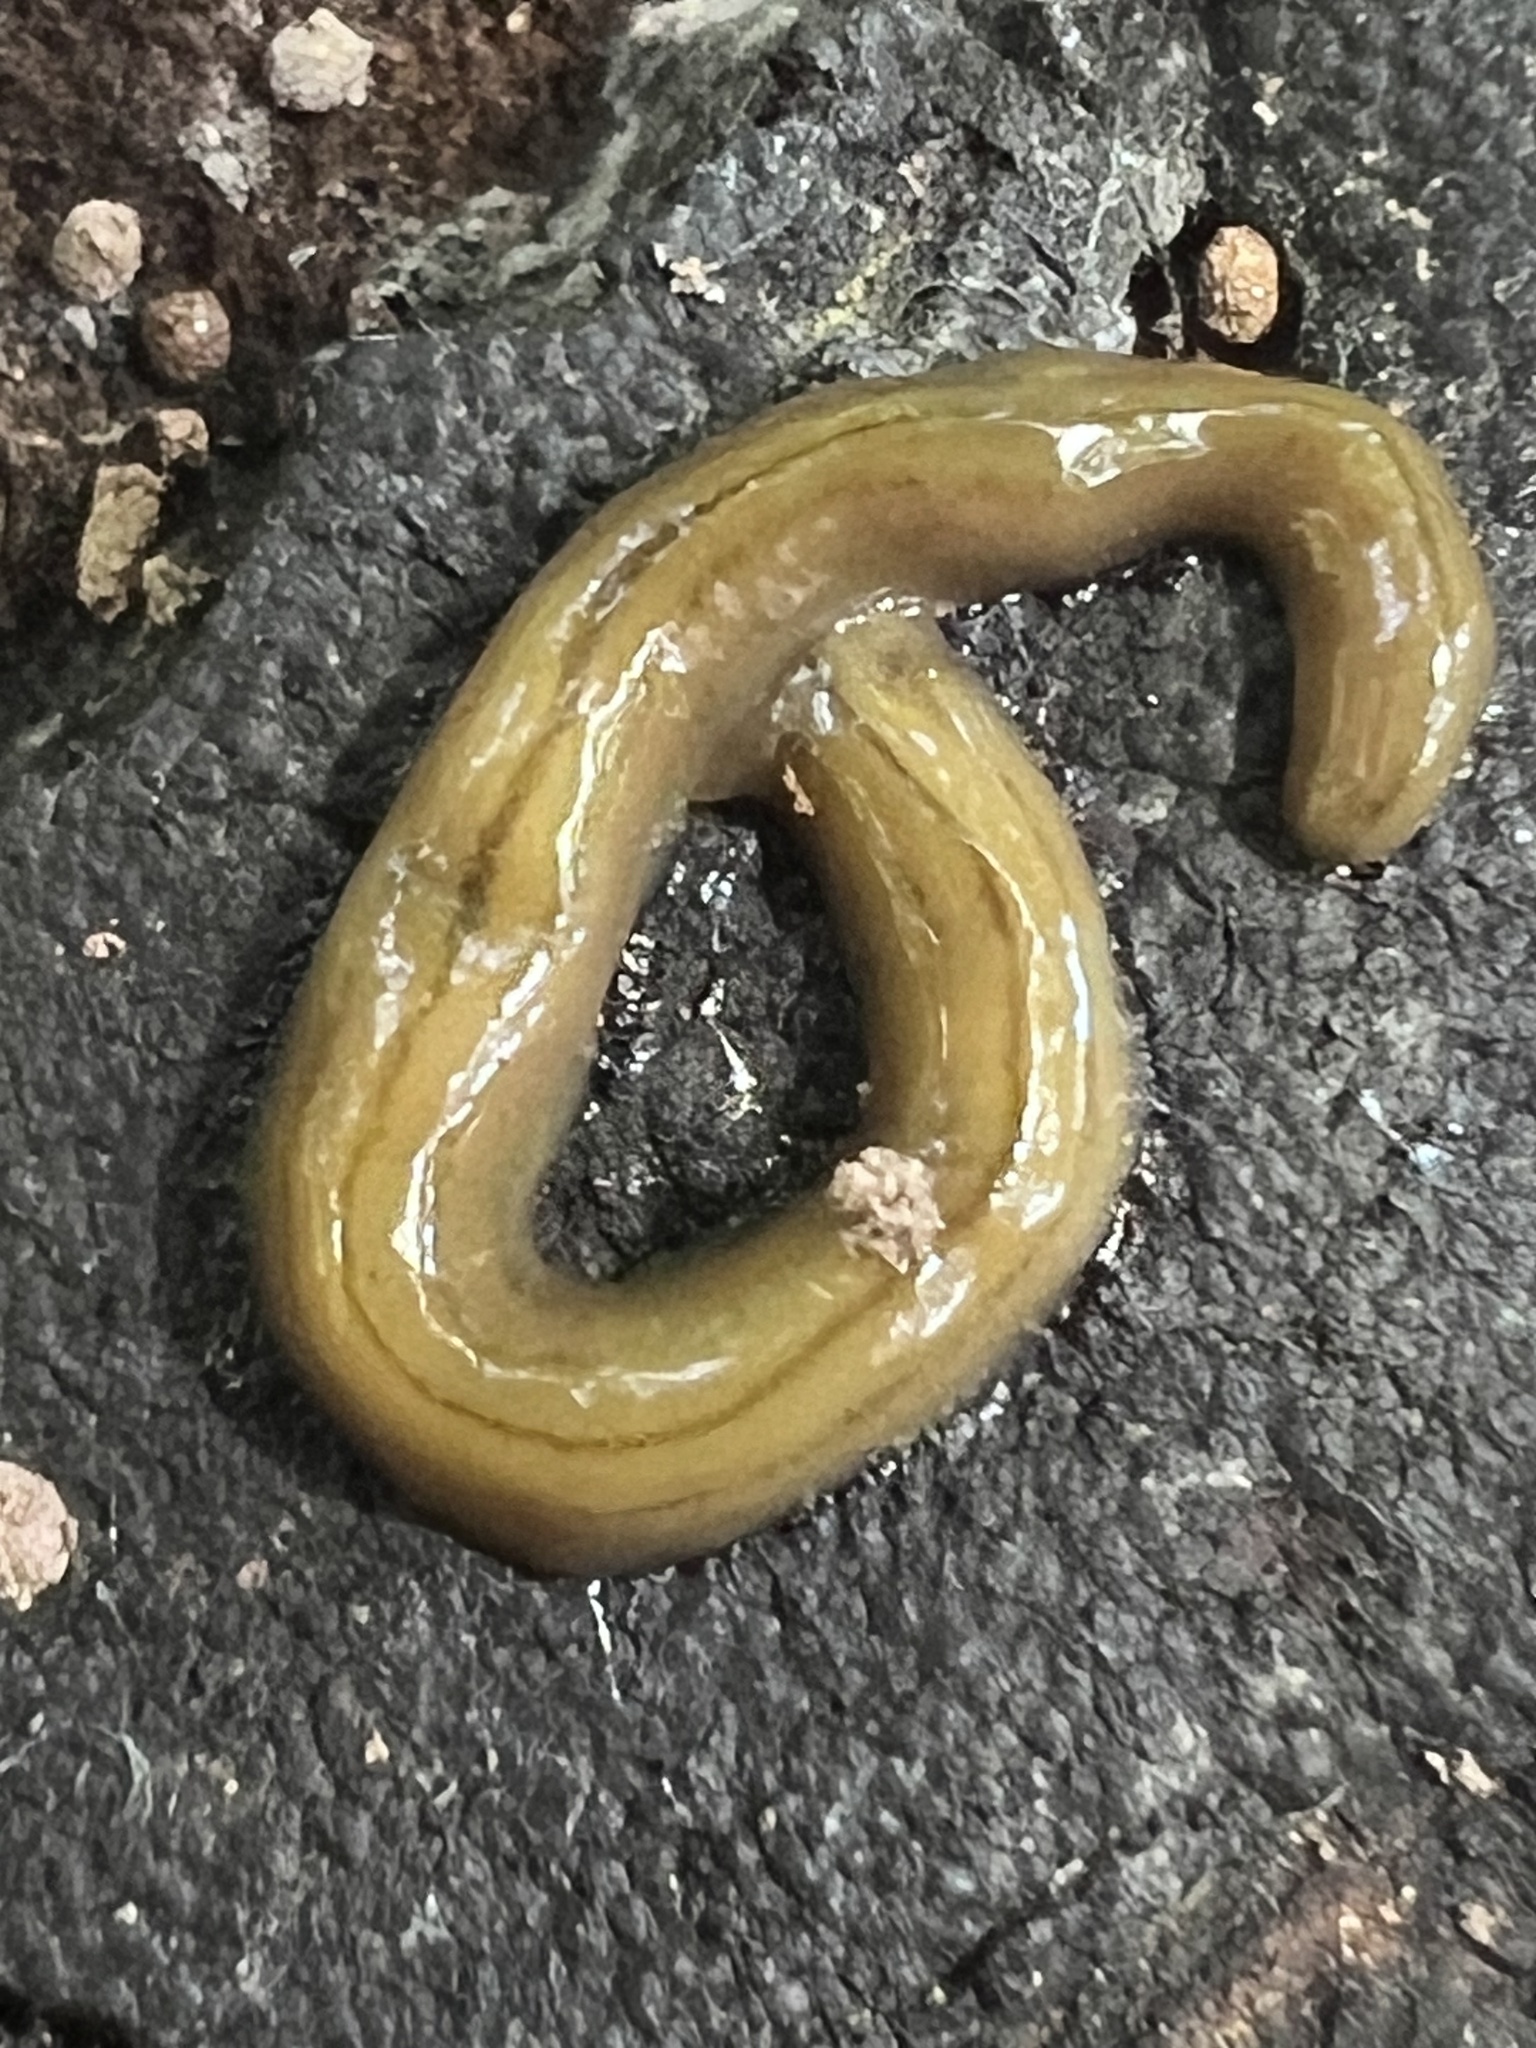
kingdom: Animalia
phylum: Platyhelminthes
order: Tricladida
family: Geoplanidae
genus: Diversibipalium
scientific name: Diversibipalium multilineatum
